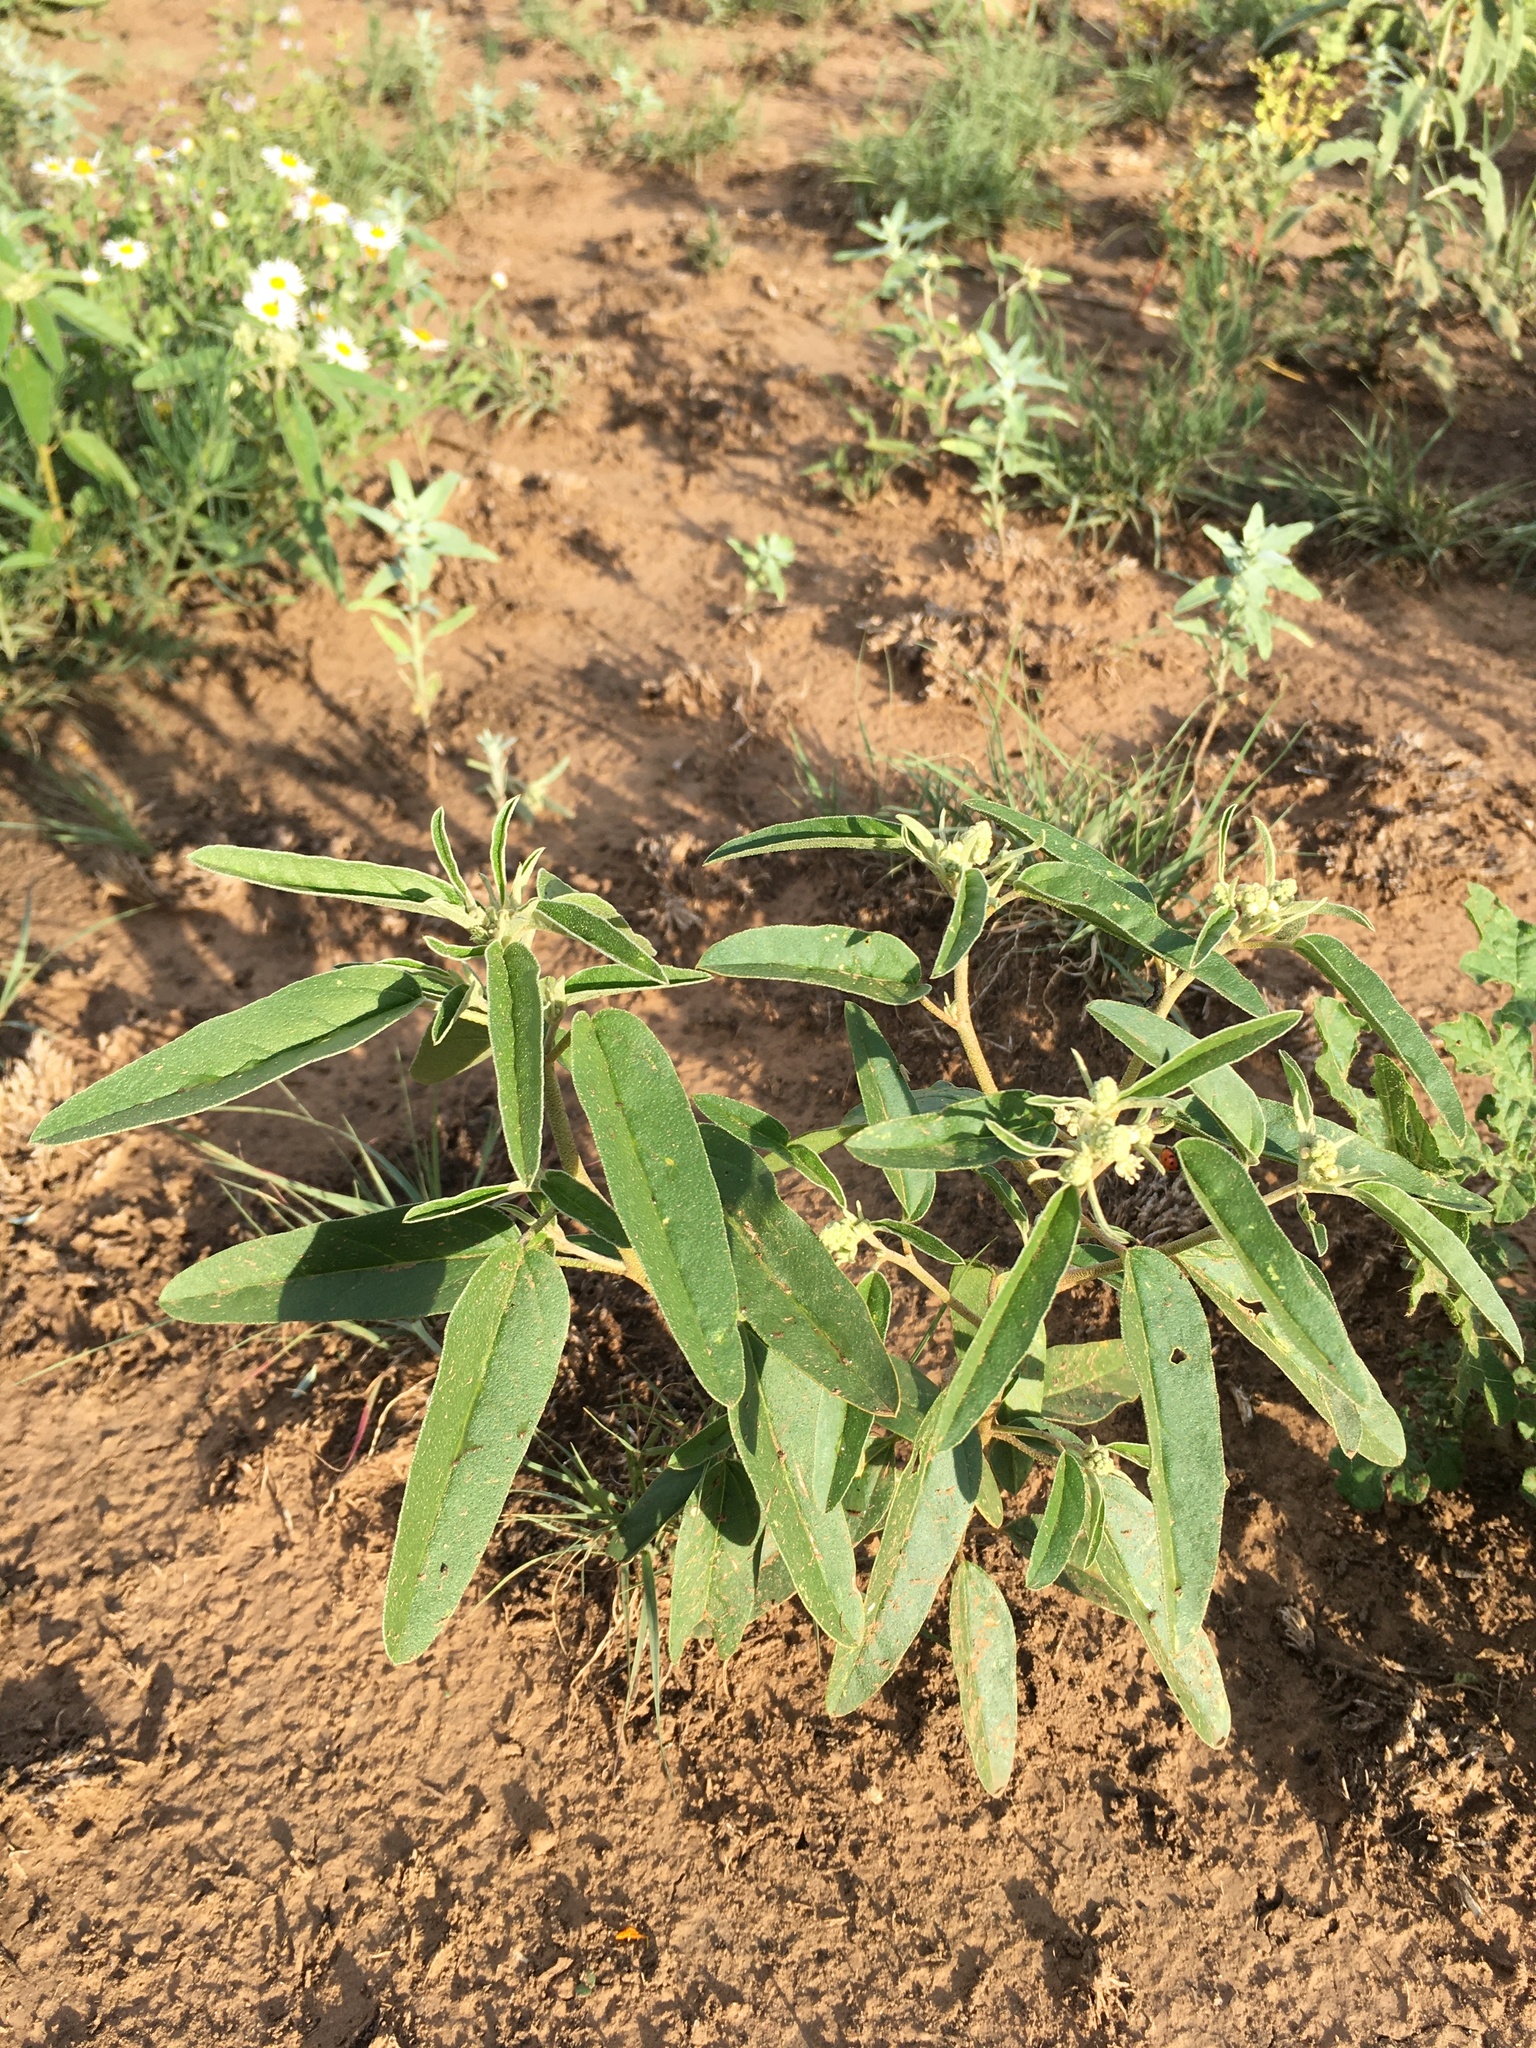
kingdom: Plantae
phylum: Tracheophyta
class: Magnoliopsida
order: Malpighiales
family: Euphorbiaceae
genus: Croton
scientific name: Croton texensis
